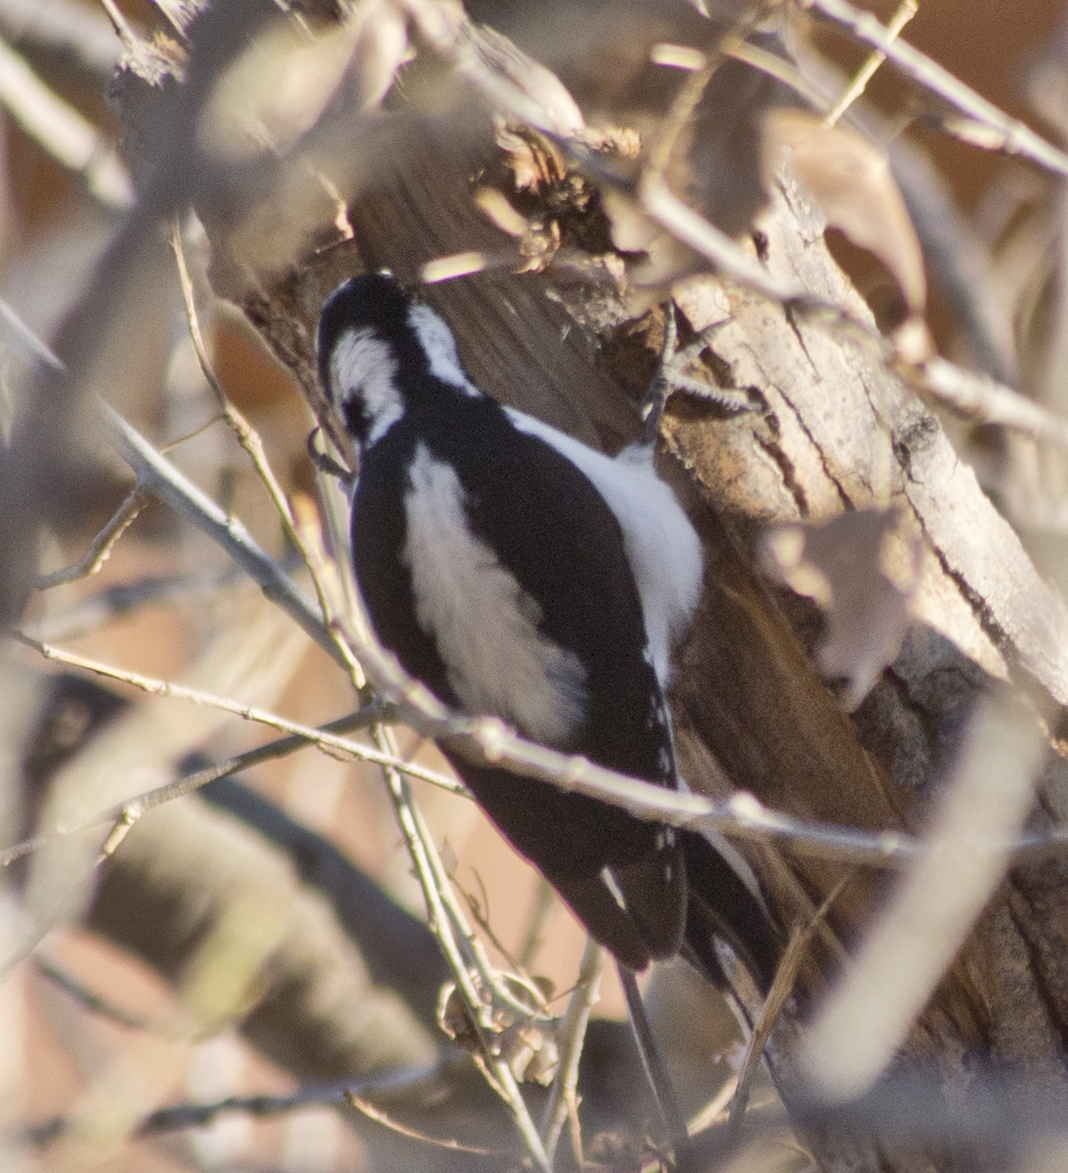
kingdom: Animalia
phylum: Chordata
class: Aves
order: Piciformes
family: Picidae
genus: Leuconotopicus
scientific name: Leuconotopicus villosus
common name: Hairy woodpecker
